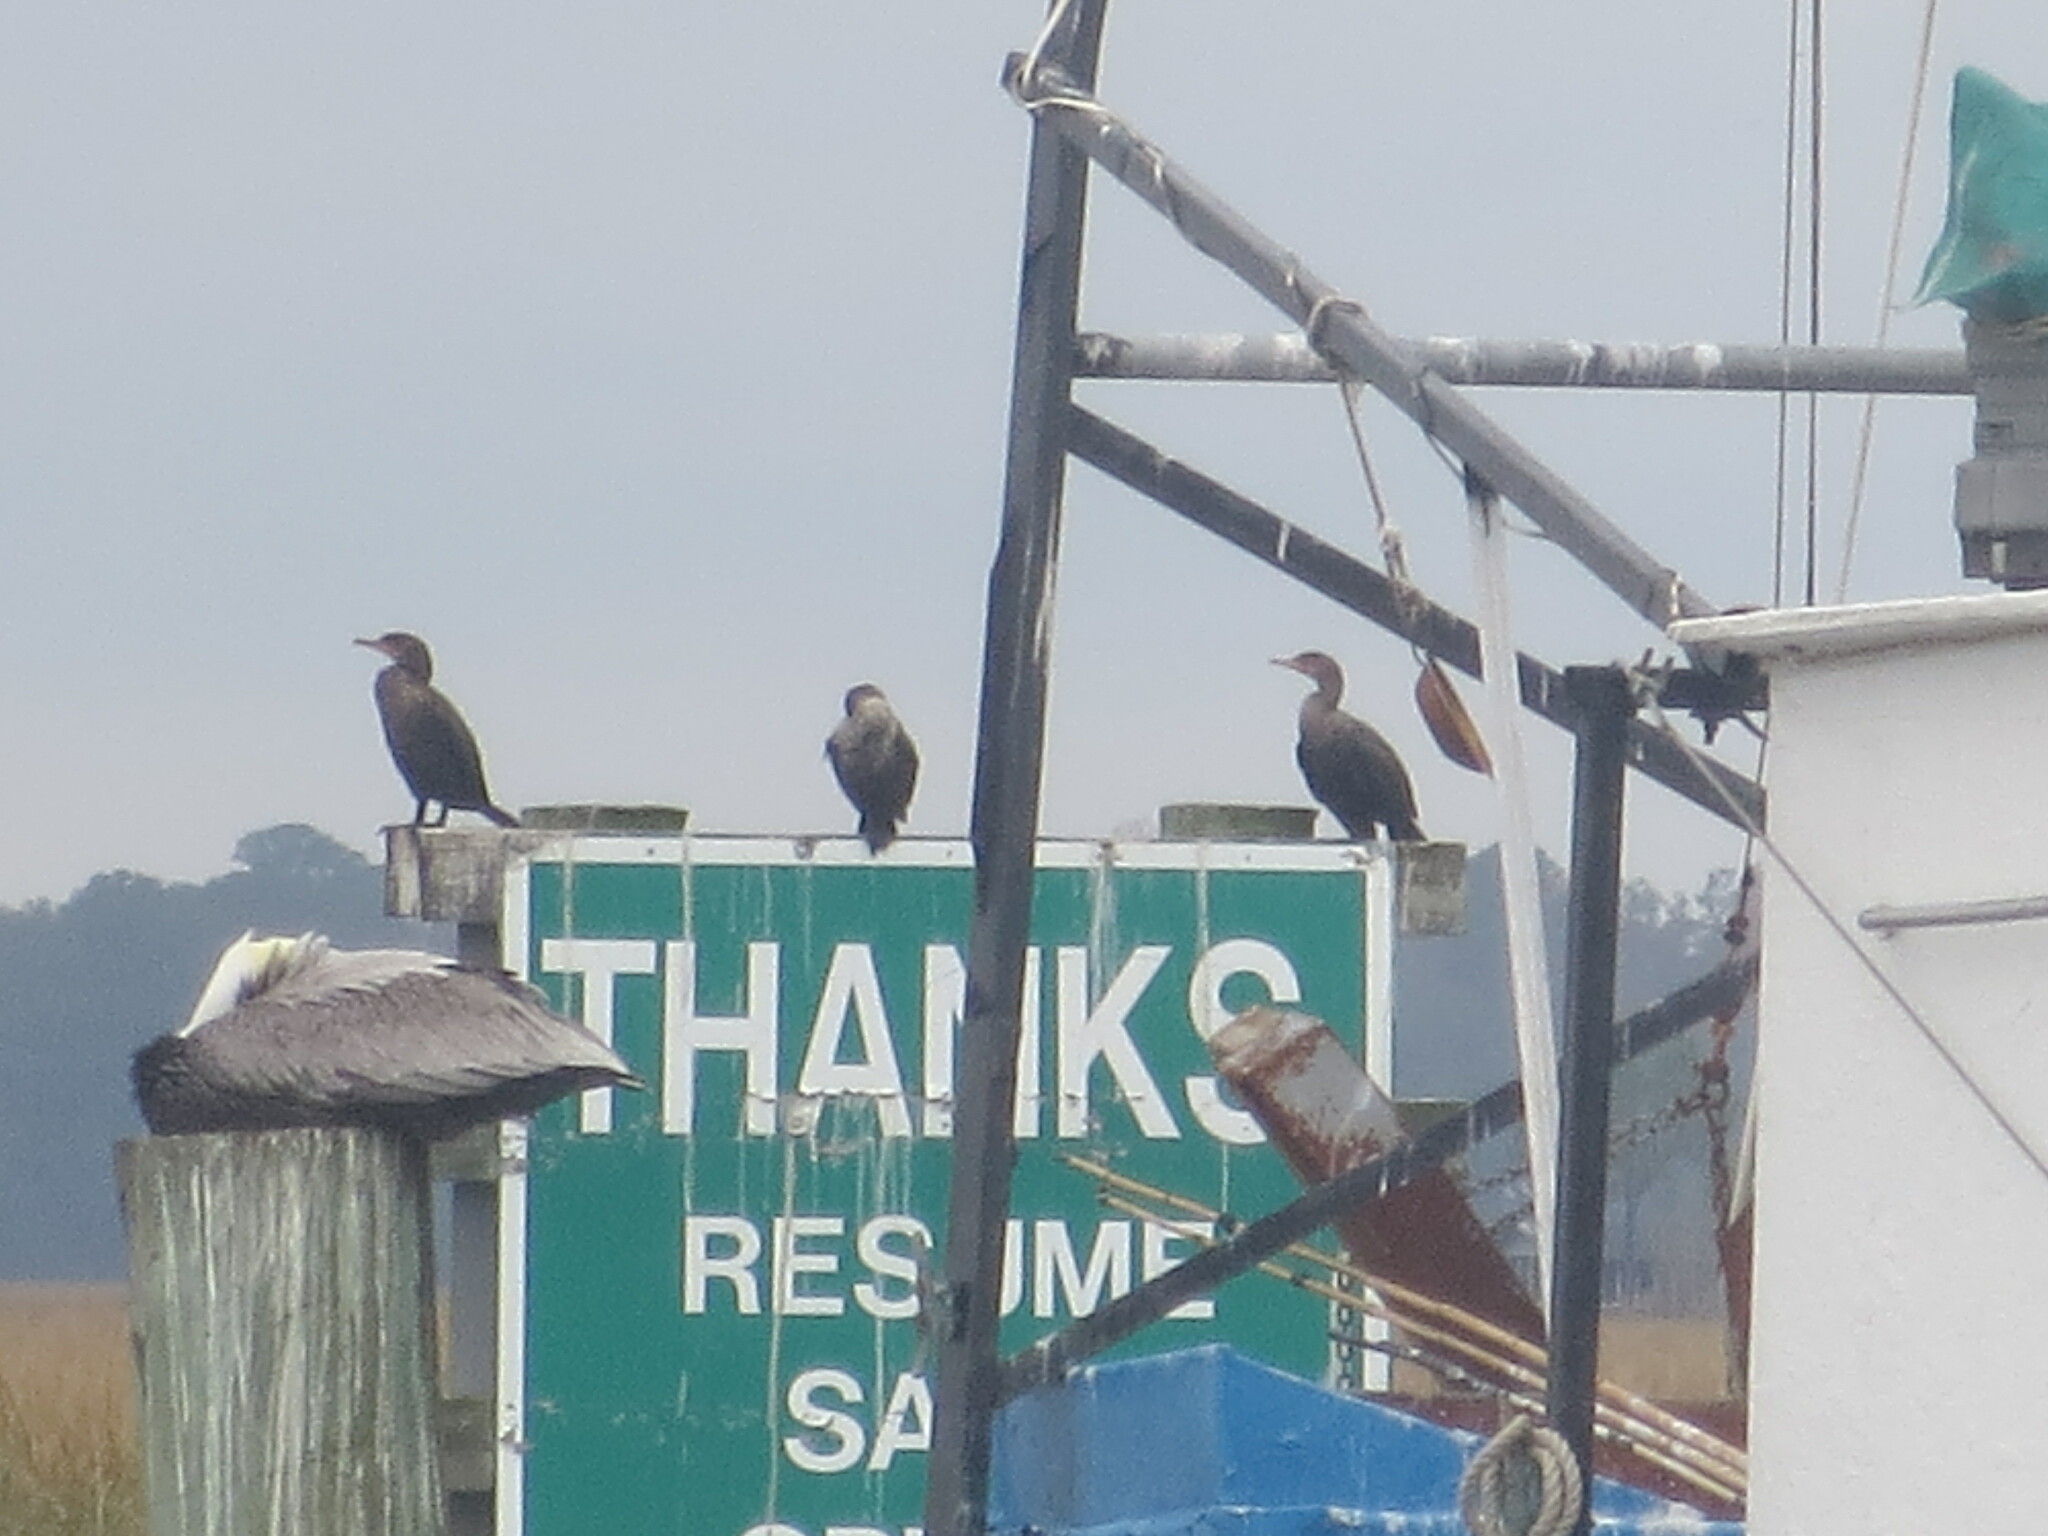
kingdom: Animalia
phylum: Chordata
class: Aves
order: Suliformes
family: Phalacrocoracidae
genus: Phalacrocorax
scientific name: Phalacrocorax auritus
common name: Double-crested cormorant
